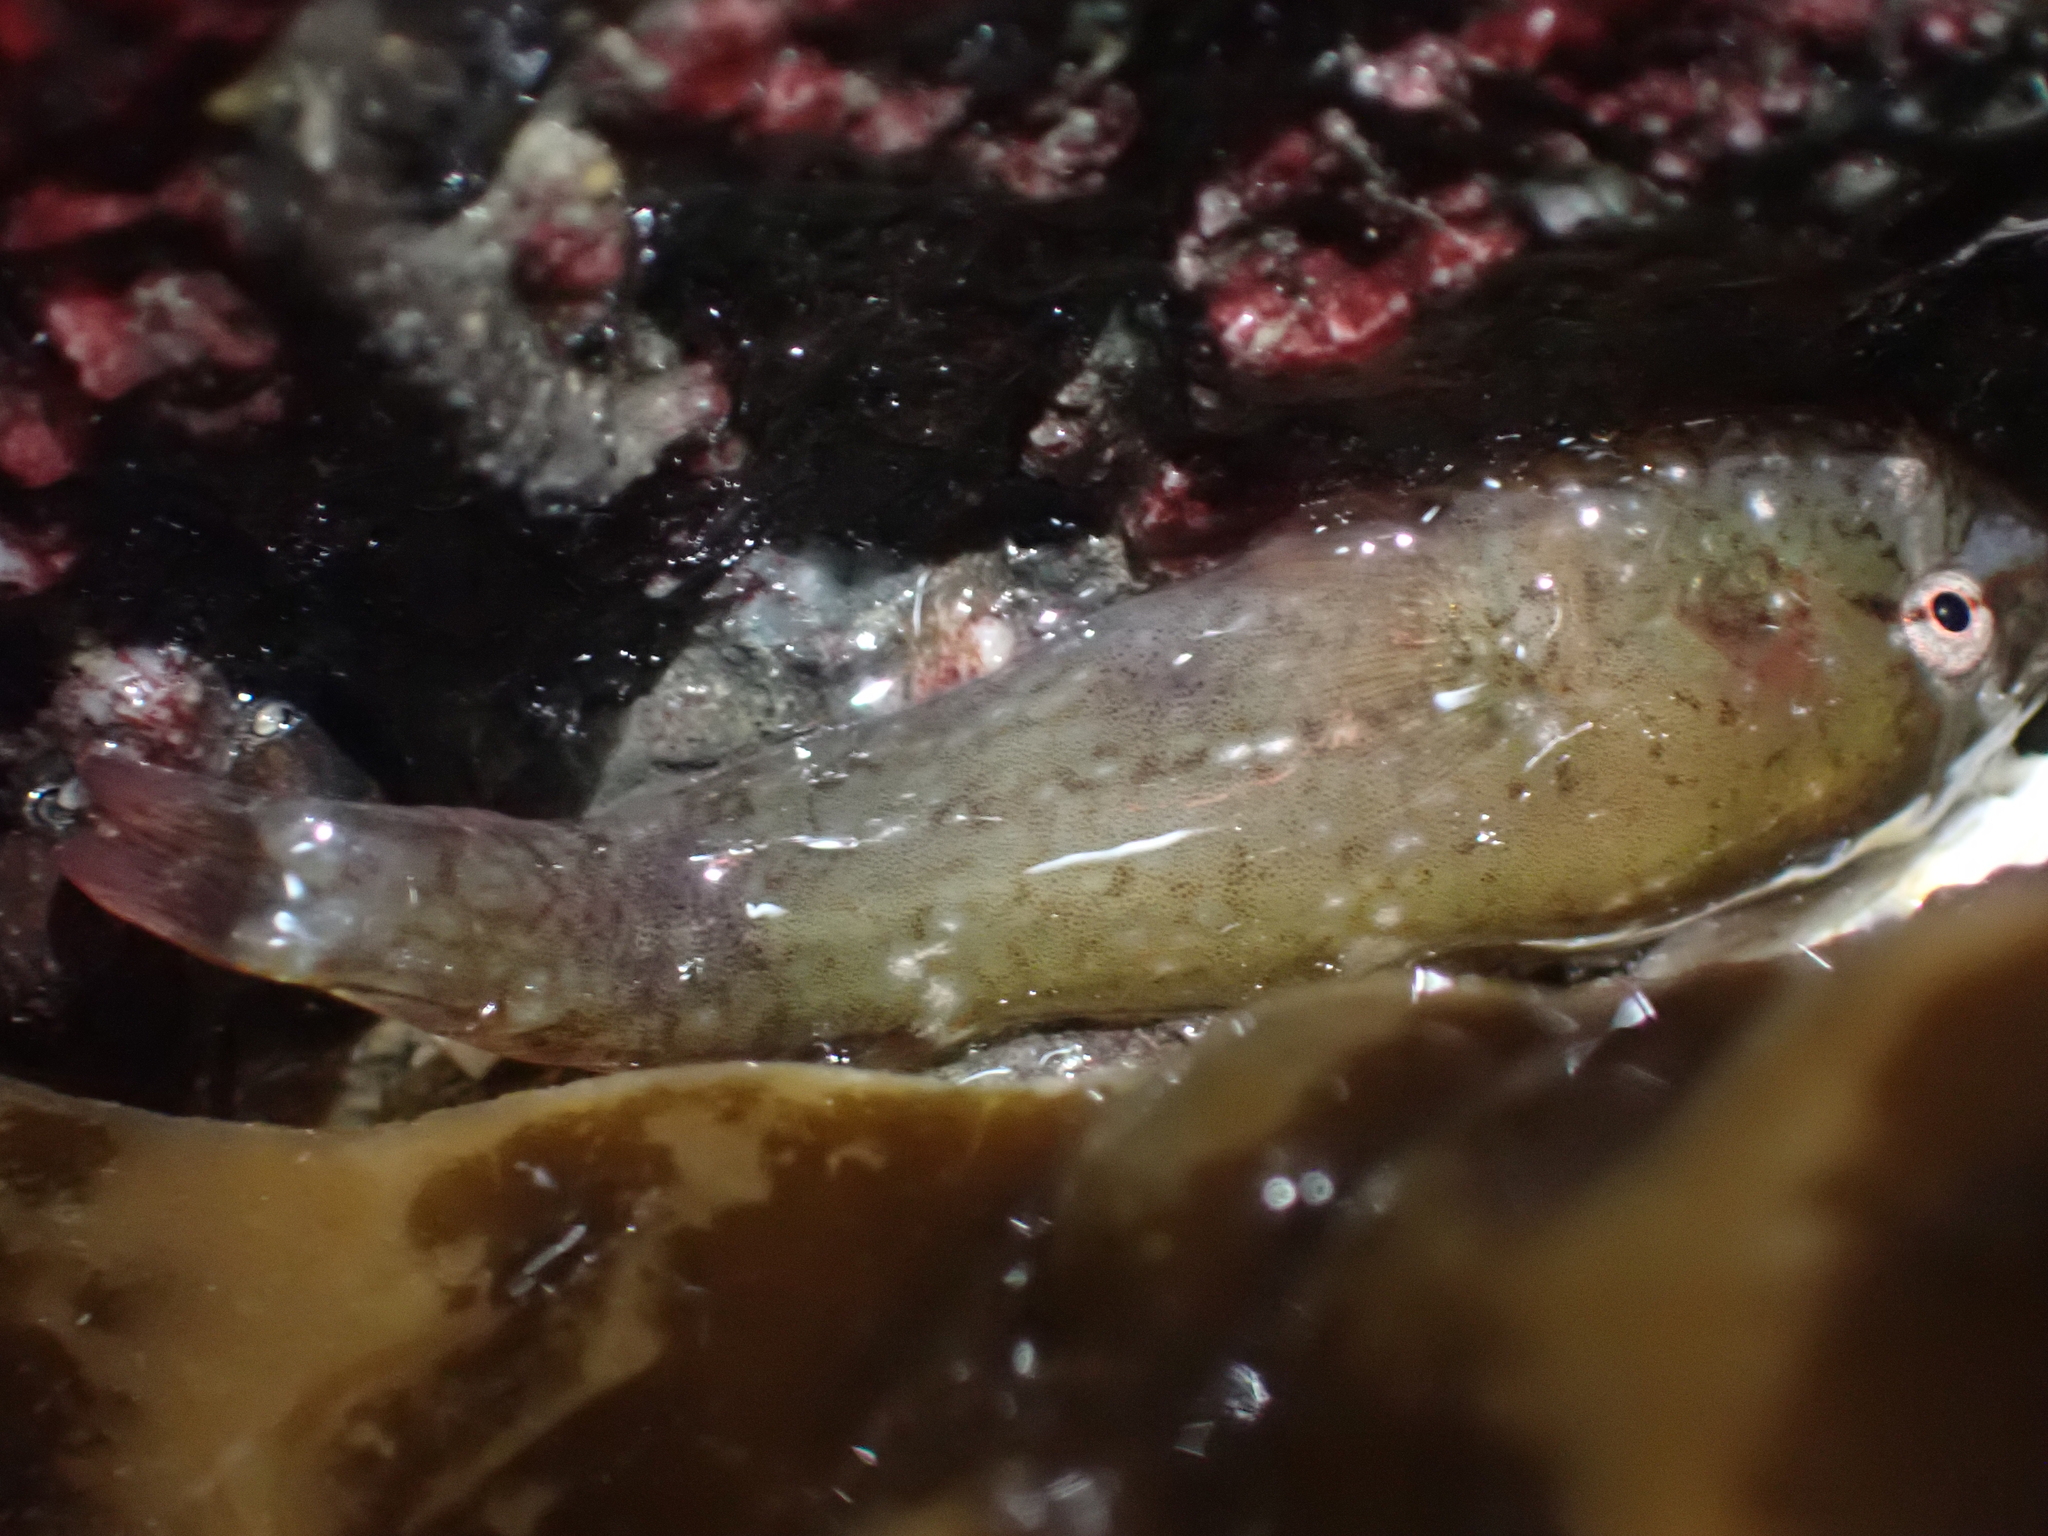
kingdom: Animalia
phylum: Chordata
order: Gobiesociformes
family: Gobiesocidae
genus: Gobiesox
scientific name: Gobiesox maeandricus
